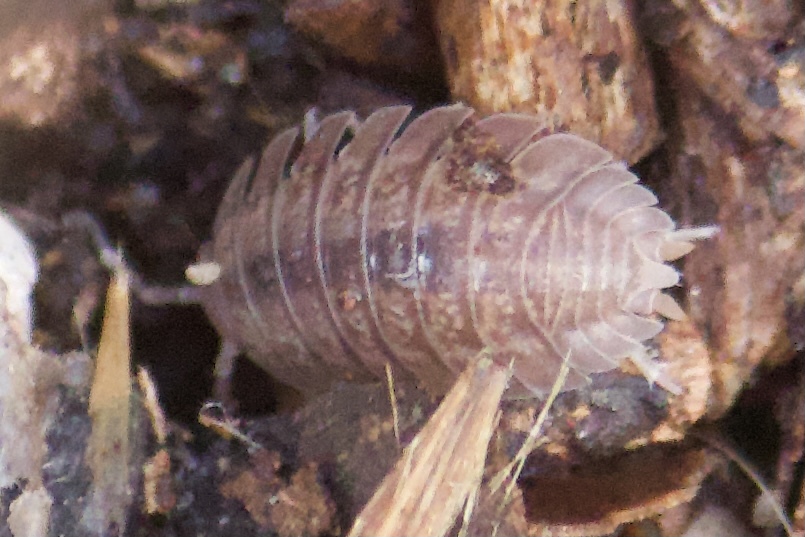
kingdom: Animalia
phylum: Arthropoda
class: Malacostraca
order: Isopoda
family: Porcellionidae
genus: Porcellio
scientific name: Porcellio dilatatus
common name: Isopod
